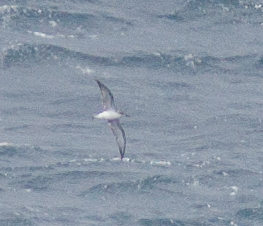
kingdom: Animalia
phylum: Chordata
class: Aves
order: Procellariiformes
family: Procellariidae
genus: Pterodroma
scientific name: Pterodroma cookii
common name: Cook's petrel
